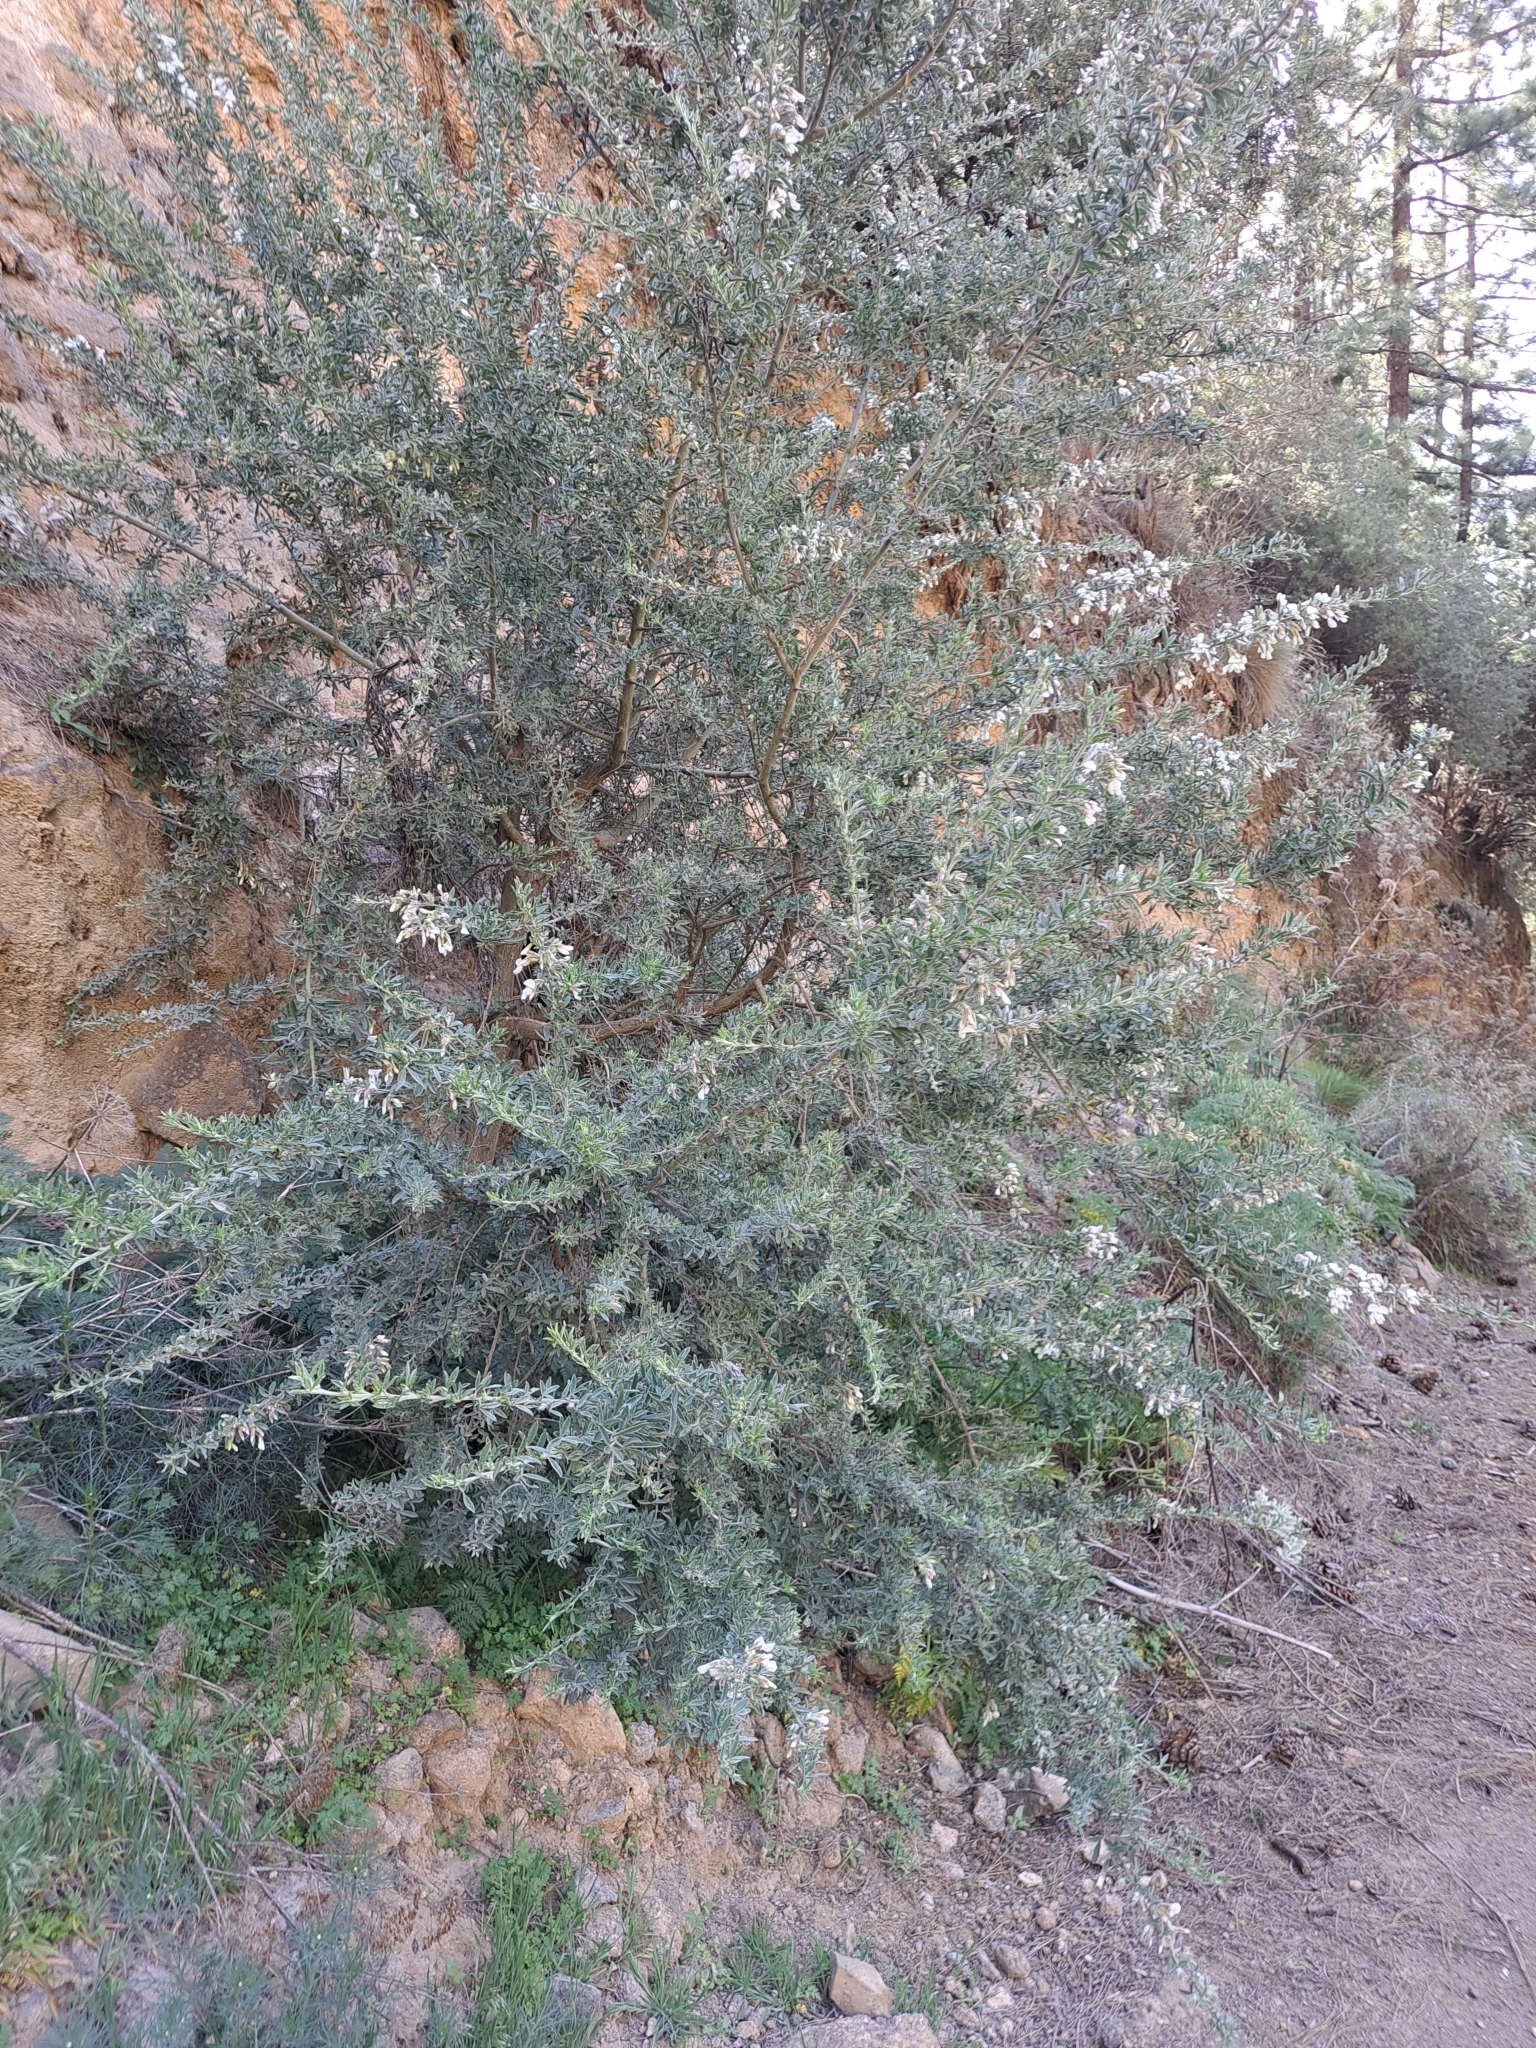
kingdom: Plantae
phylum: Tracheophyta
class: Magnoliopsida
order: Fabales
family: Fabaceae
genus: Chamaecytisus
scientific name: Chamaecytisus prolifer
